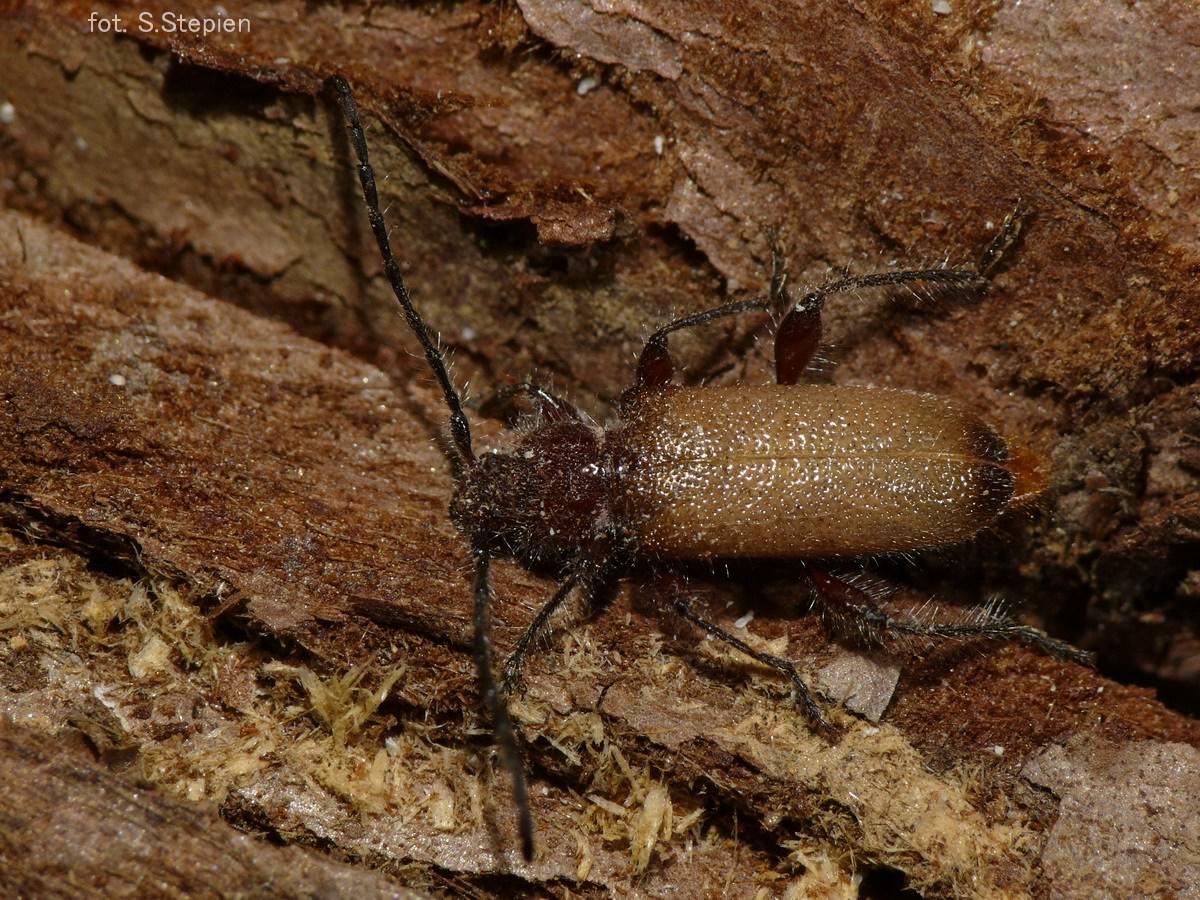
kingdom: Animalia
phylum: Arthropoda
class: Insecta
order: Coleoptera
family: Cerambycidae
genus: Callidiellum
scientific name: Callidiellum villosulum
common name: Longhorn beetle
